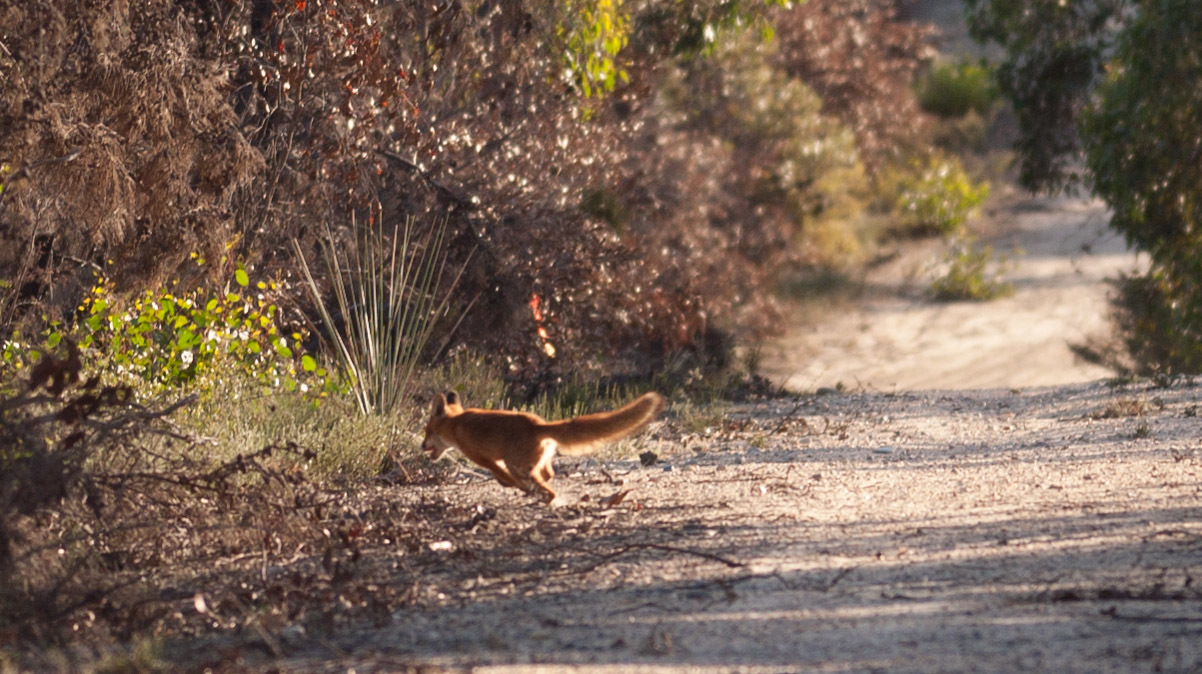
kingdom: Animalia
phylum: Chordata
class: Mammalia
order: Carnivora
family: Canidae
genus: Vulpes
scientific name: Vulpes vulpes
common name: Red fox
